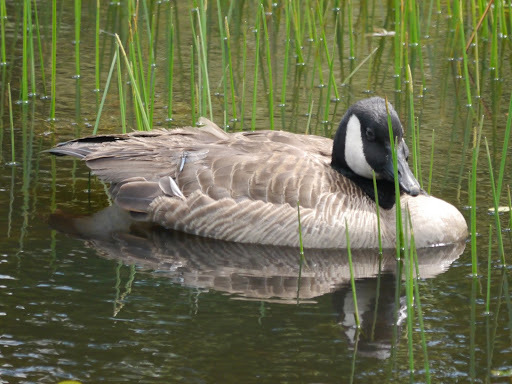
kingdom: Animalia
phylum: Chordata
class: Aves
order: Anseriformes
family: Anatidae
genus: Branta
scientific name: Branta canadensis
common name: Canada goose
